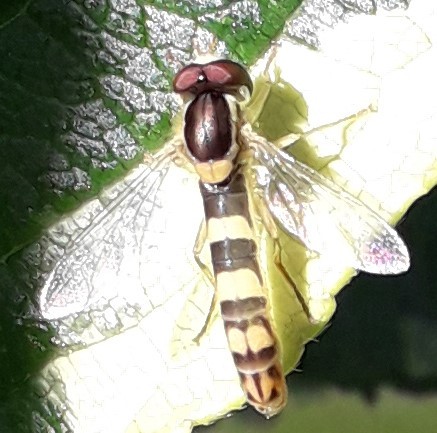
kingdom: Animalia
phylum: Arthropoda
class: Insecta
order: Diptera
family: Syrphidae
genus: Sphaerophoria
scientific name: Sphaerophoria scripta
